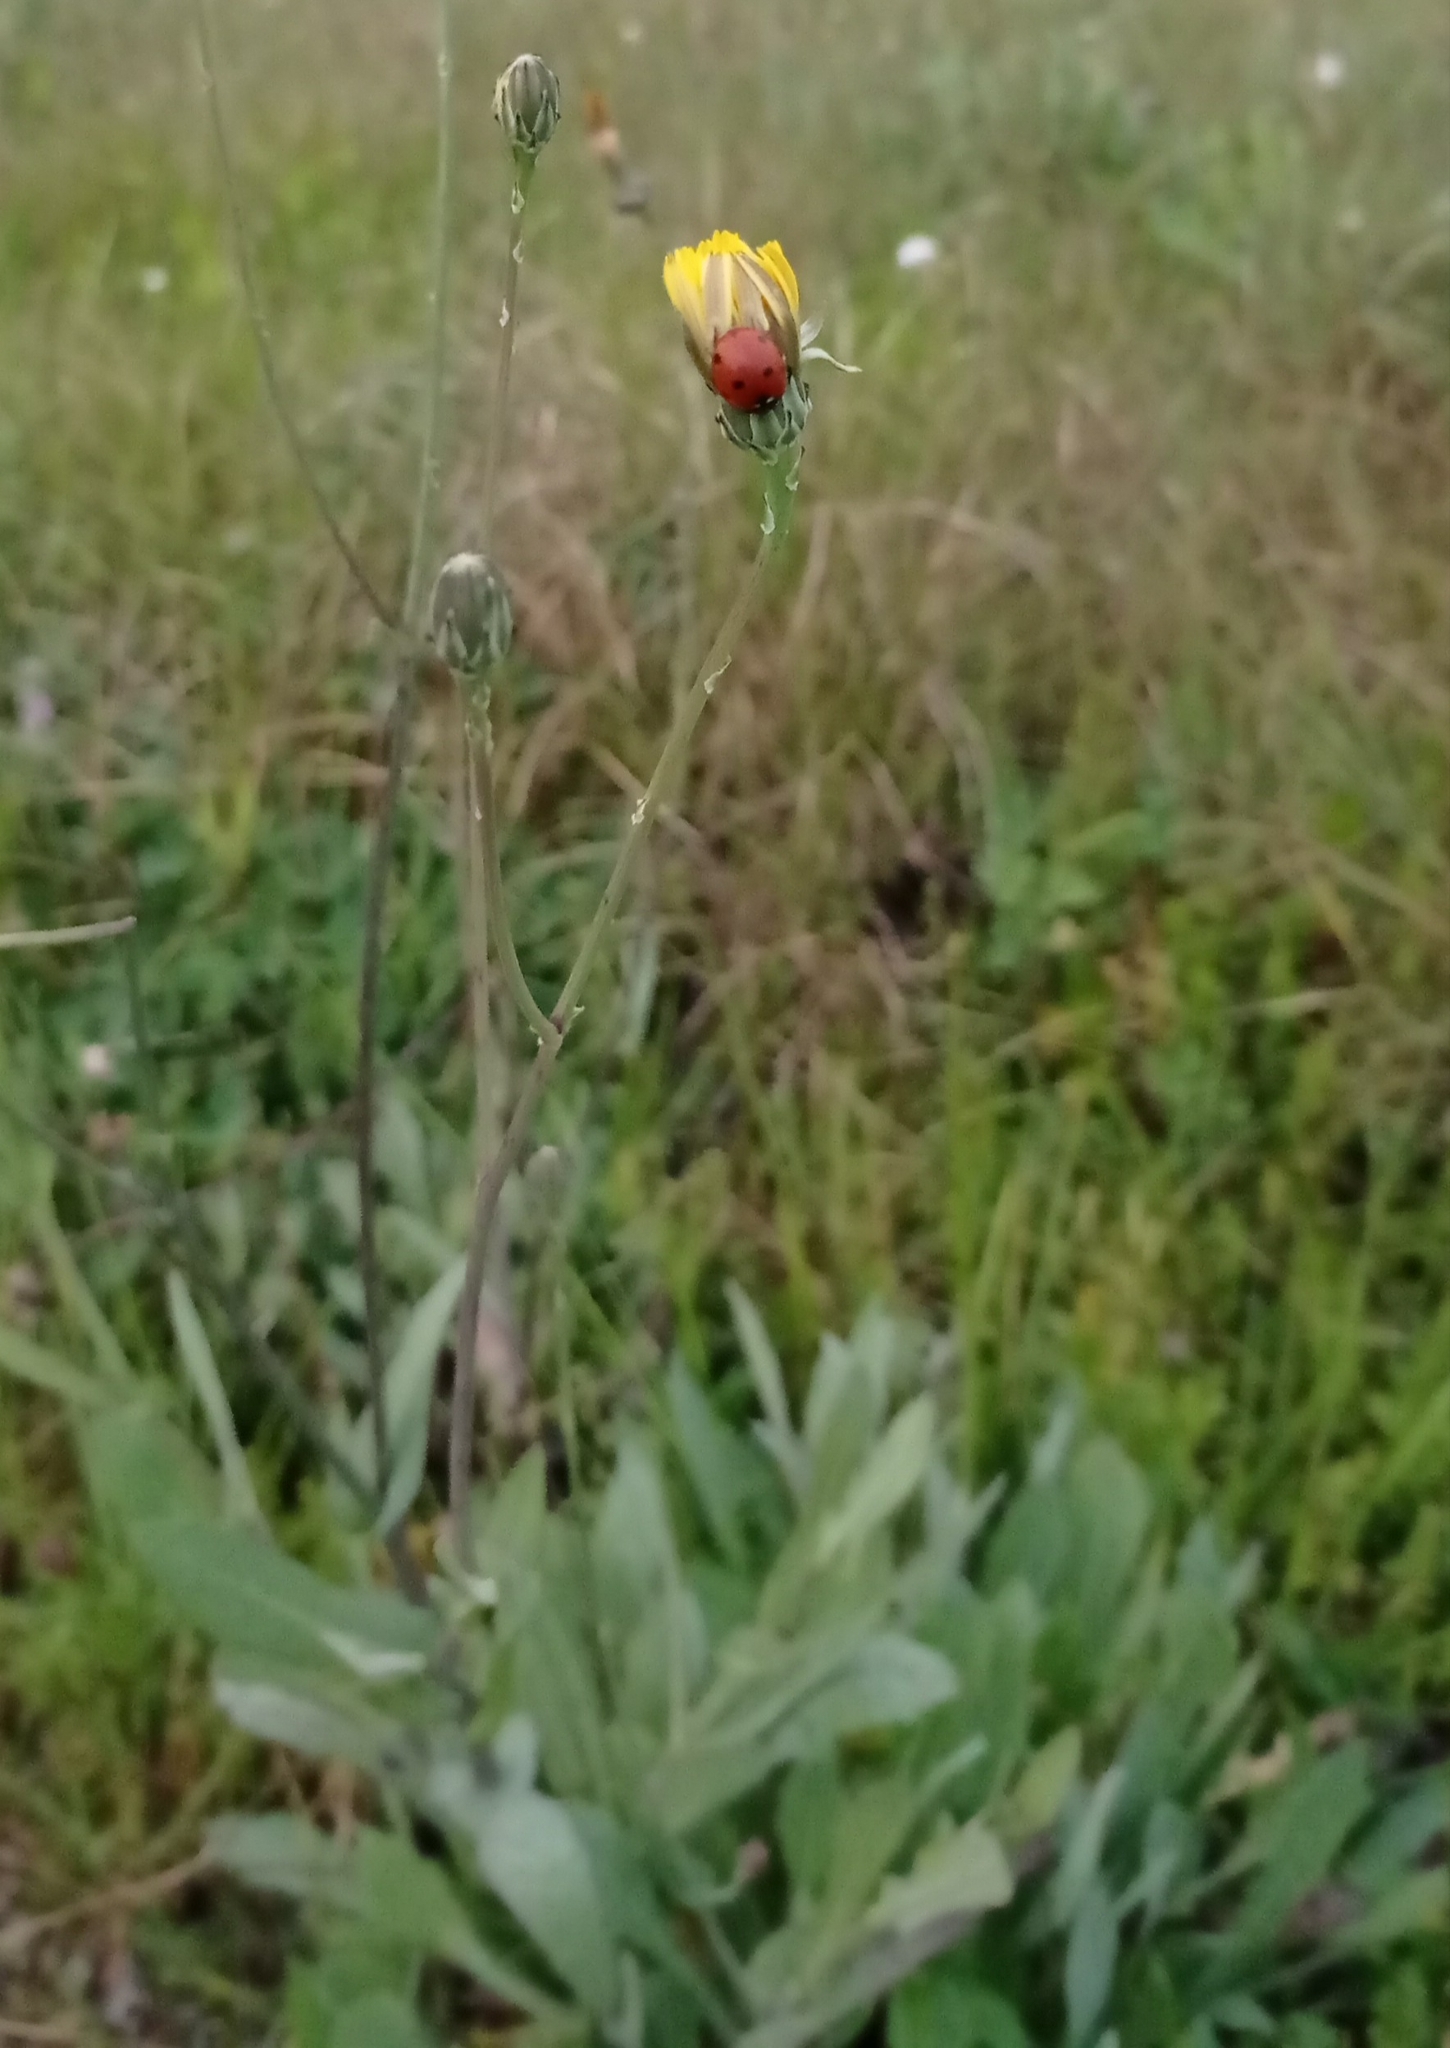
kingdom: Animalia
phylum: Arthropoda
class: Insecta
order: Coleoptera
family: Coccinellidae
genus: Coccinella
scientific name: Coccinella septempunctata
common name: Sevenspotted lady beetle
